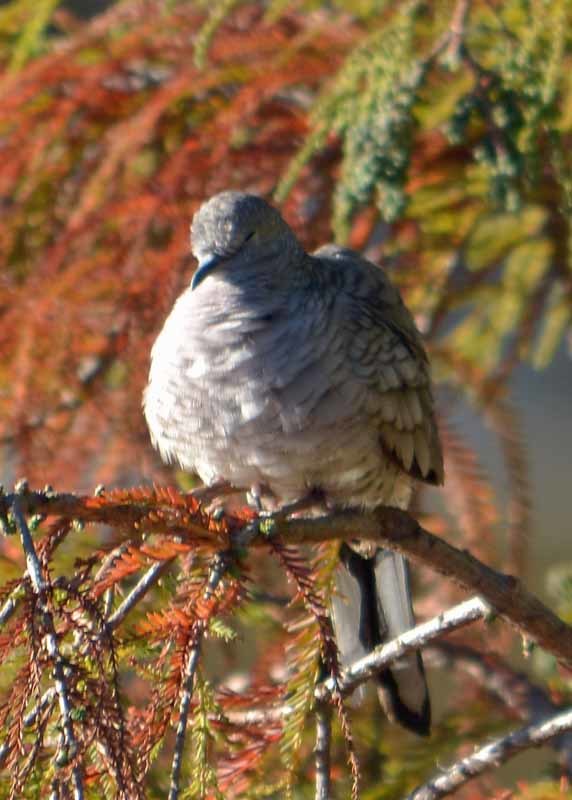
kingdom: Animalia
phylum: Chordata
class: Aves
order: Columbiformes
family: Columbidae
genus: Columbina
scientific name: Columbina inca
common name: Inca dove
